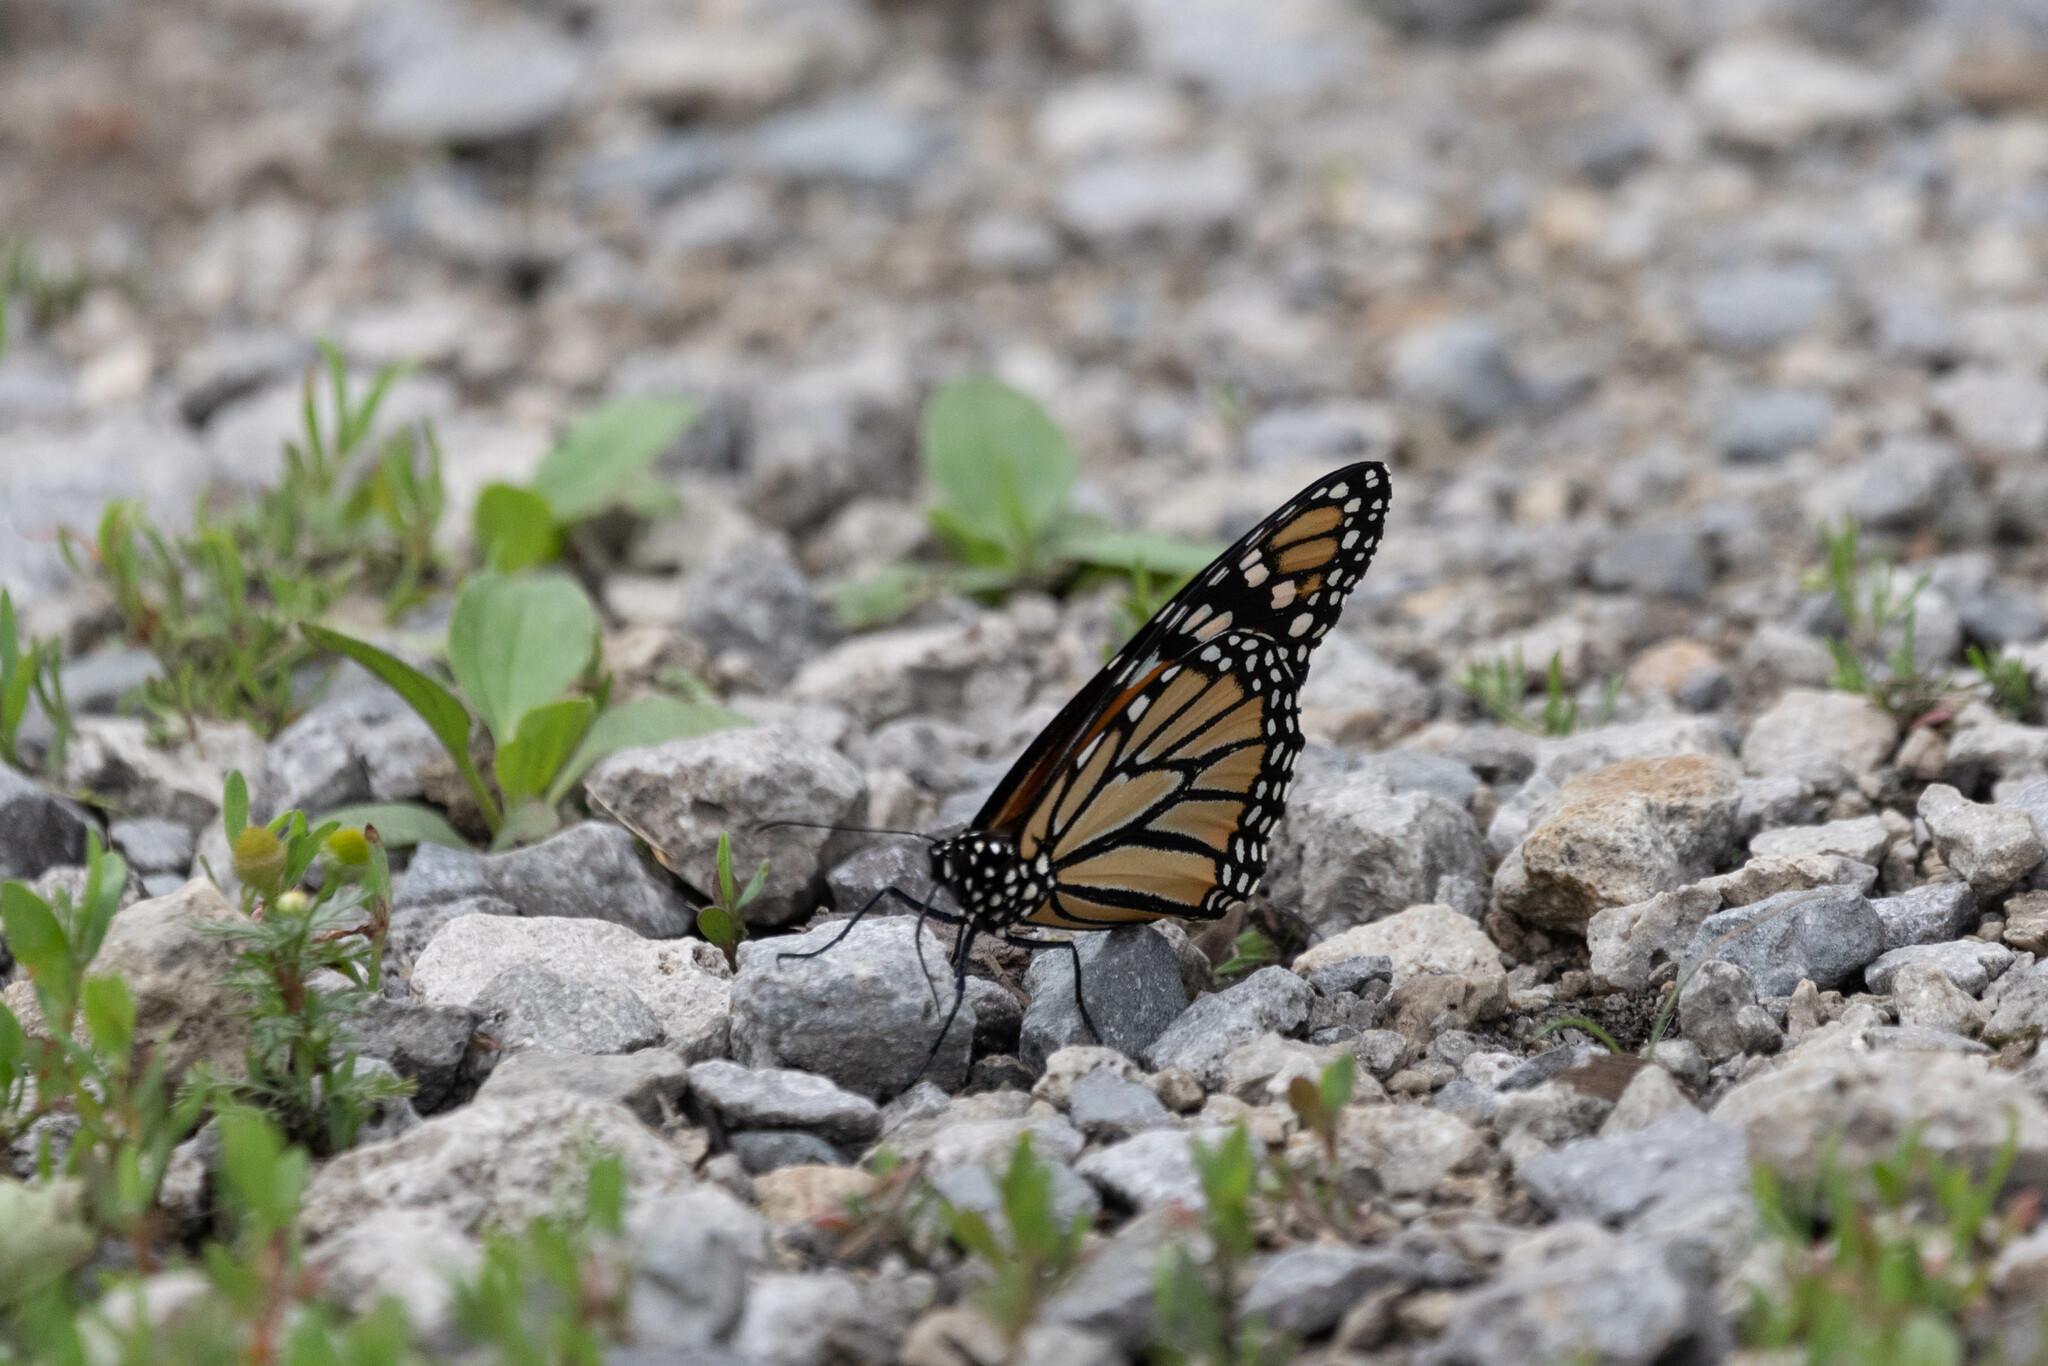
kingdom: Animalia
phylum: Arthropoda
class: Insecta
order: Lepidoptera
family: Nymphalidae
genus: Danaus
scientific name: Danaus plexippus
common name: Monarch
